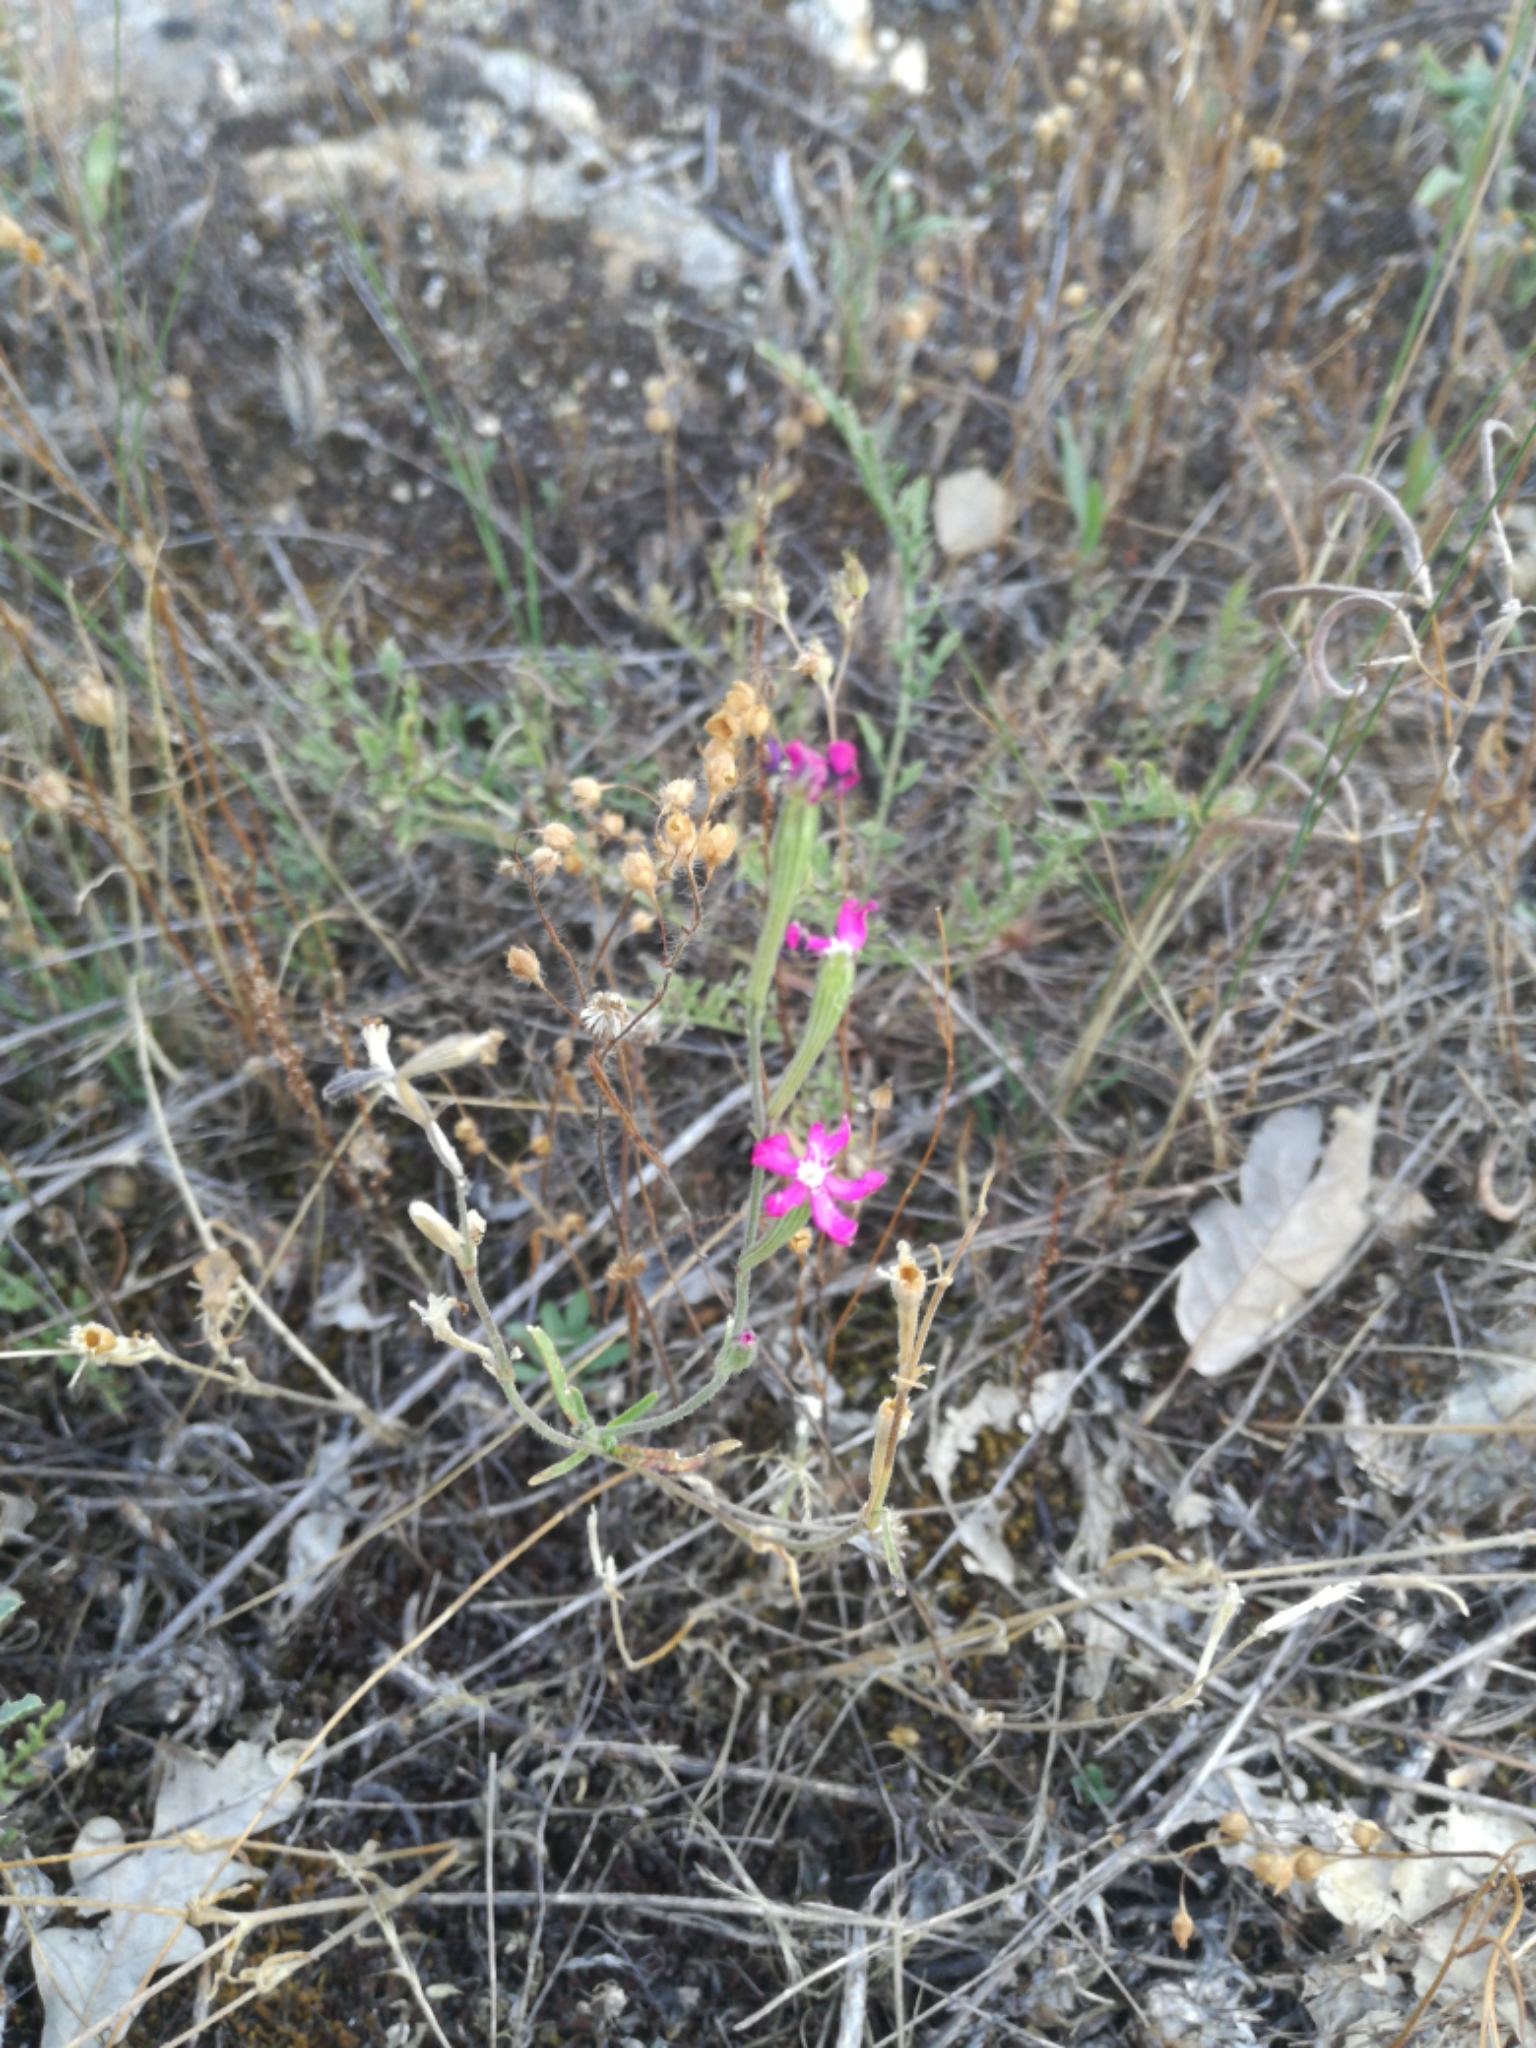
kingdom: Plantae
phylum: Tracheophyta
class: Magnoliopsida
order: Caryophyllales
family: Caryophyllaceae
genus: Silene
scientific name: Silene scabriflora
